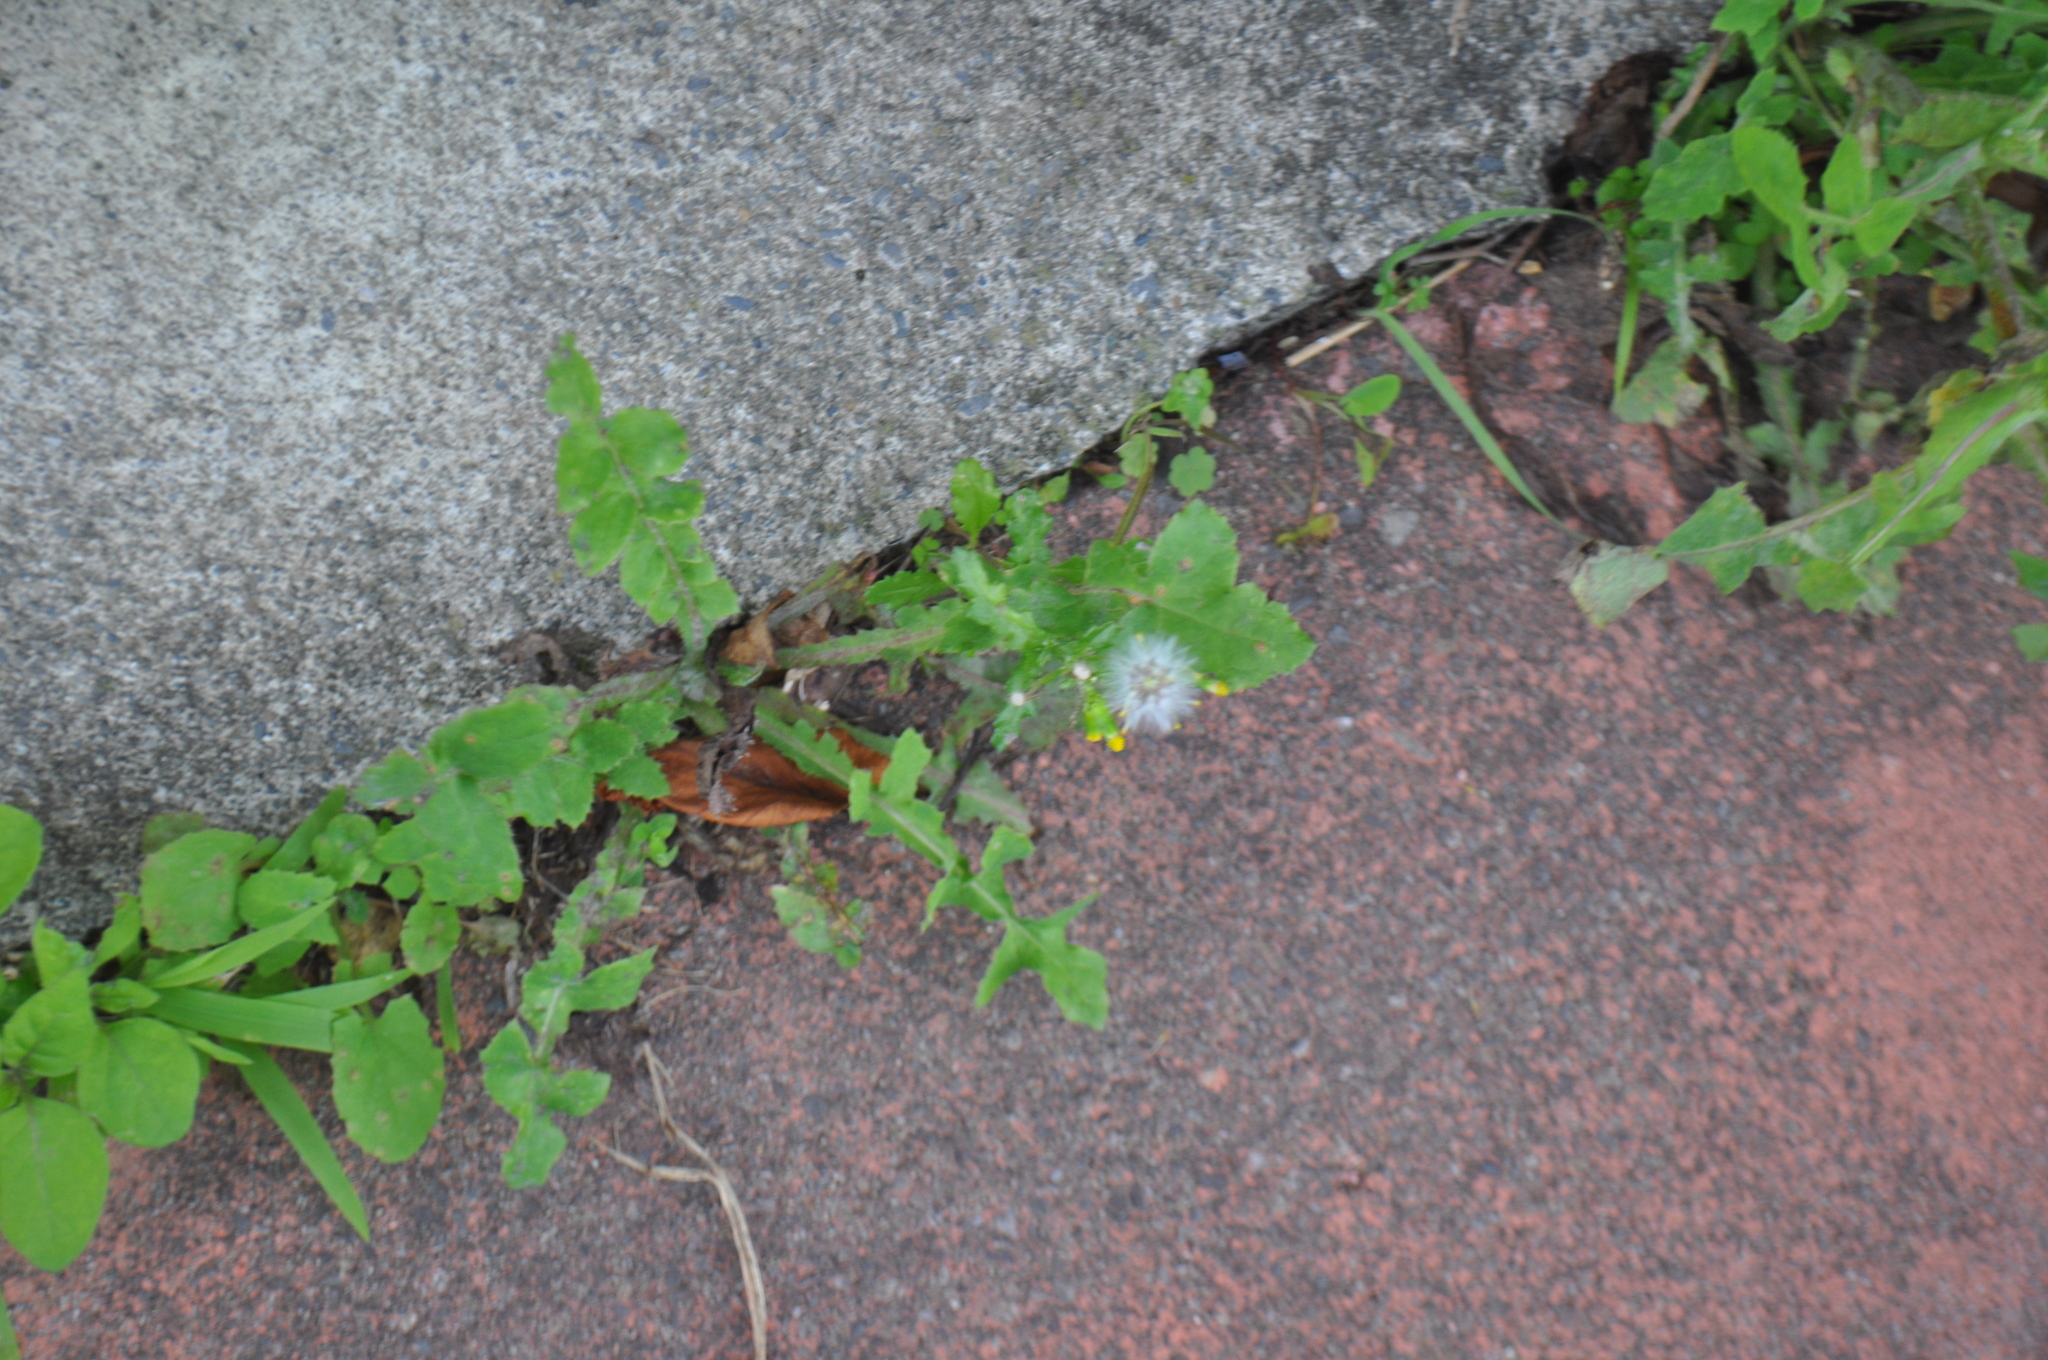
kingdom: Plantae
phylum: Tracheophyta
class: Magnoliopsida
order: Asterales
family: Asteraceae
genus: Sonchus
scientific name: Sonchus oleraceus
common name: Common sowthistle
